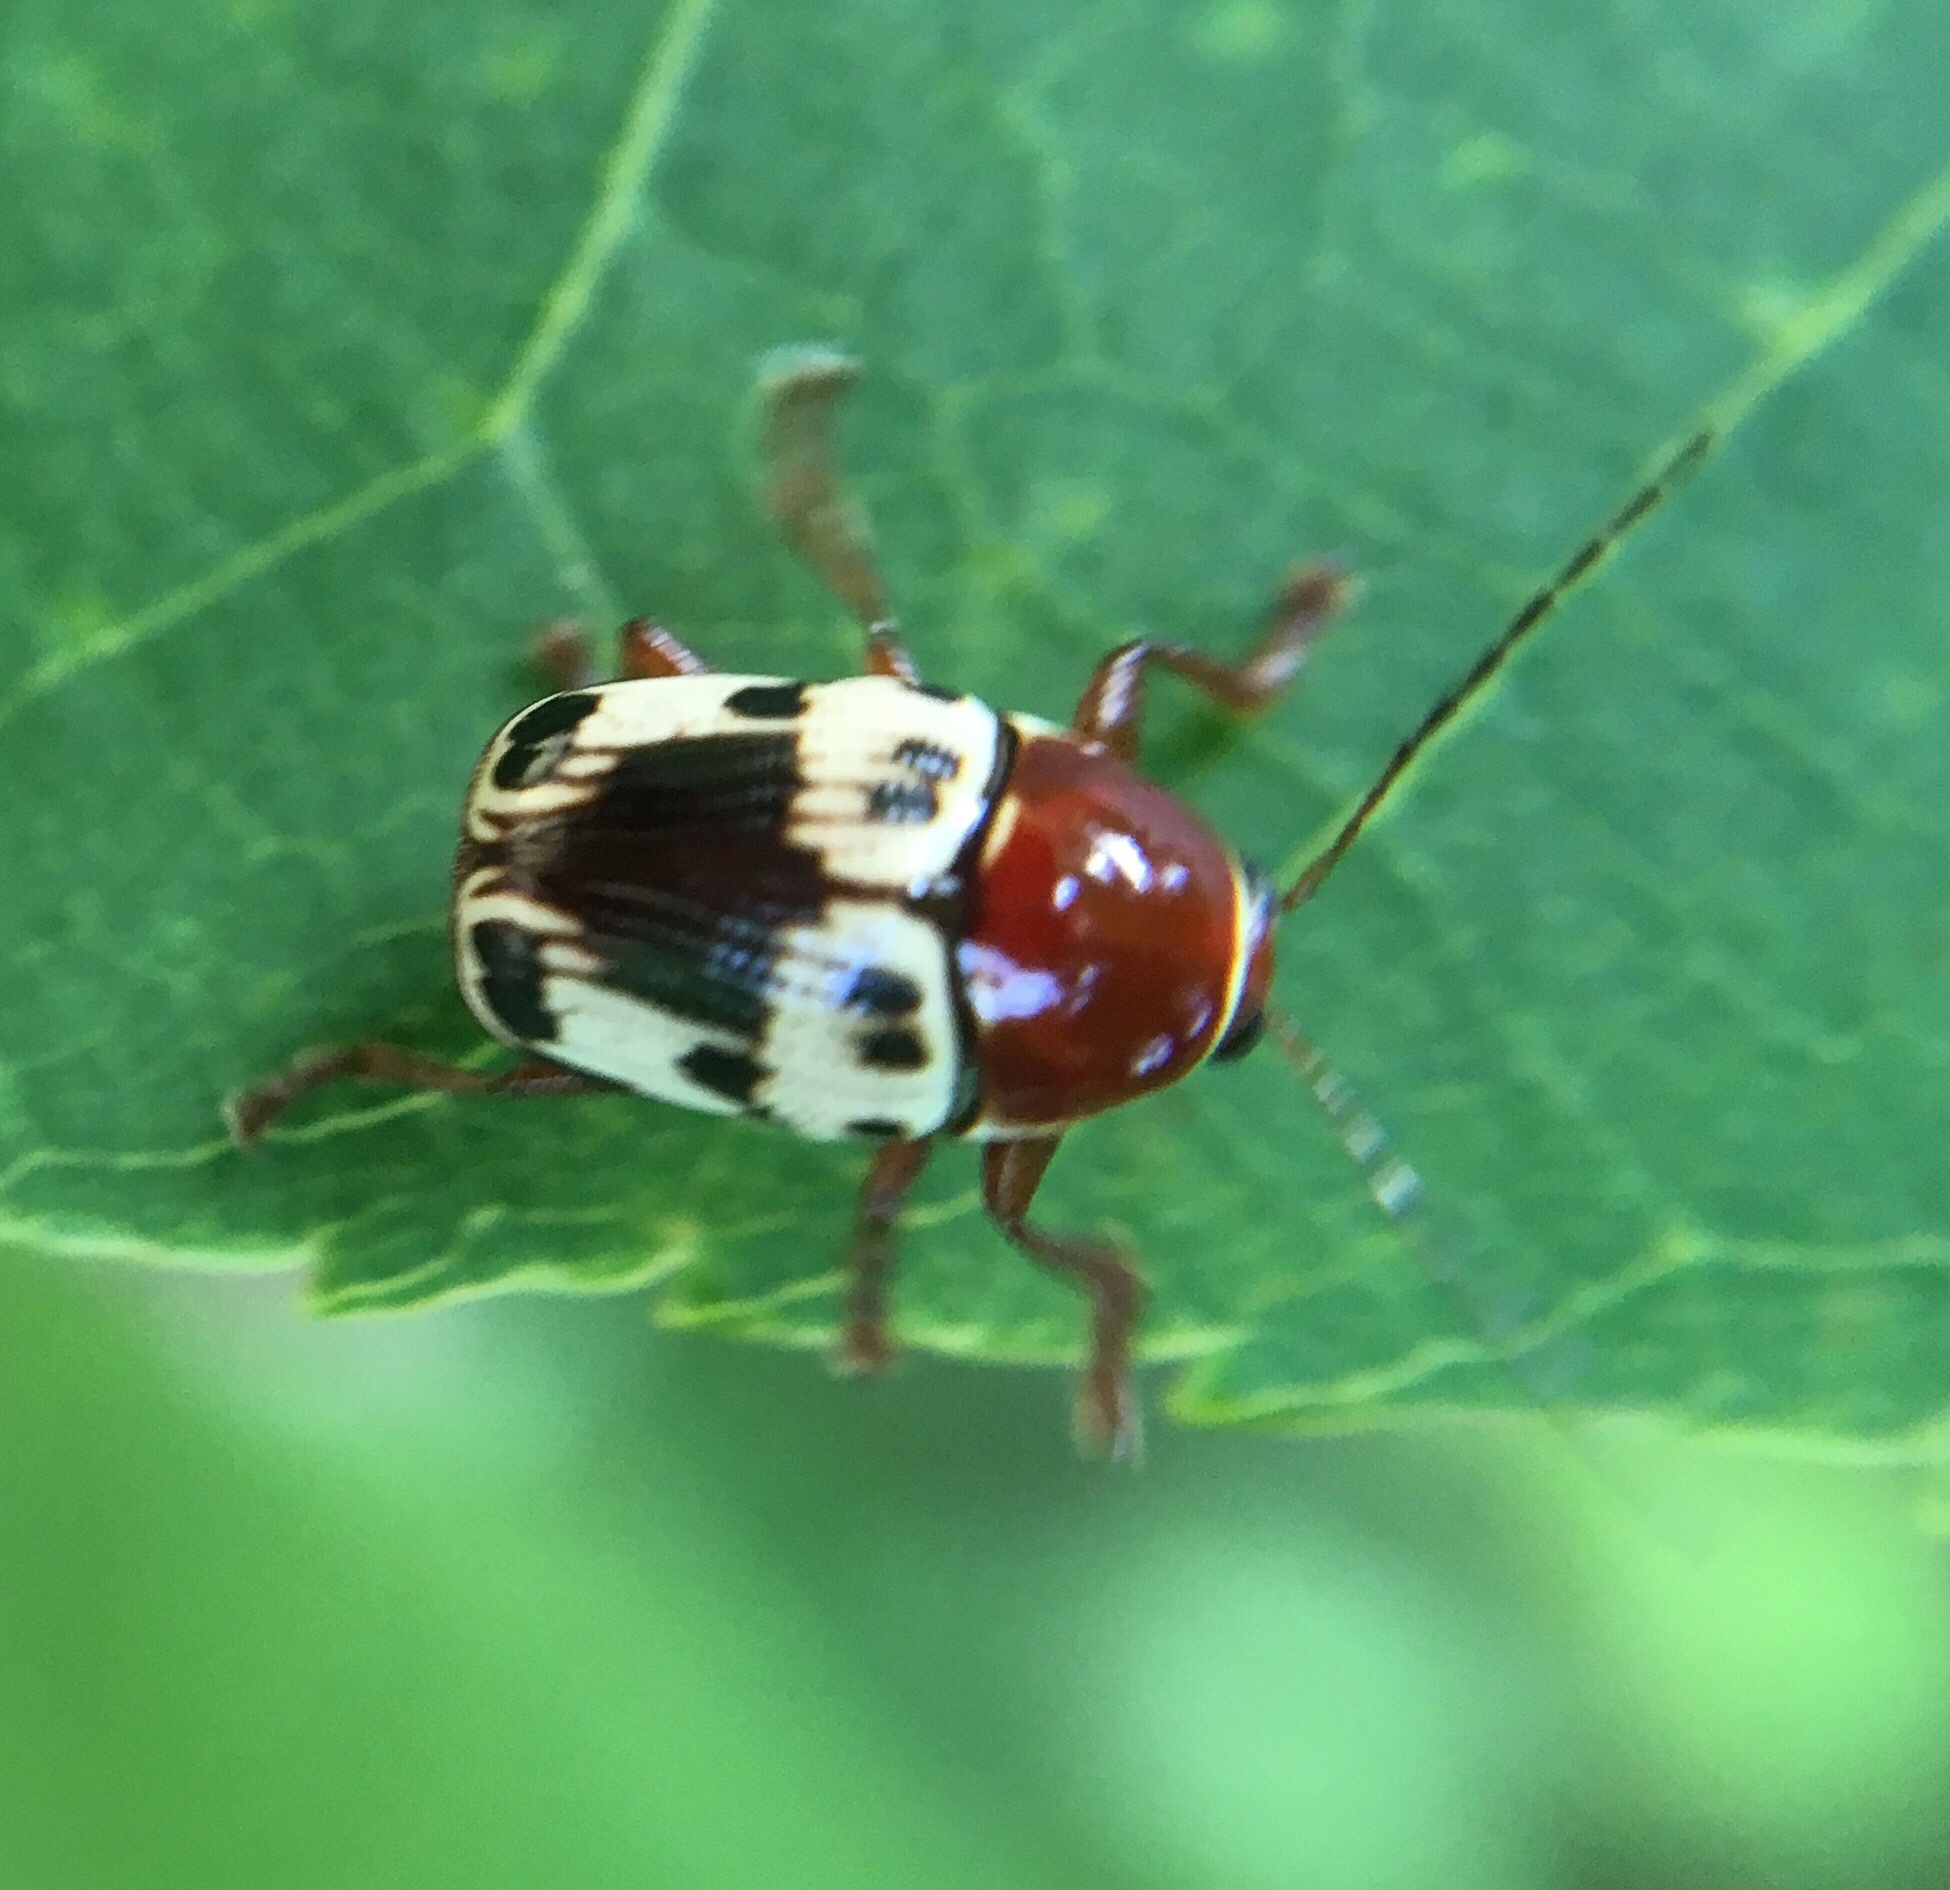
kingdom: Animalia
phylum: Arthropoda
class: Insecta
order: Coleoptera
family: Chrysomelidae
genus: Cryptocephalus
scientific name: Cryptocephalus mutabilis
